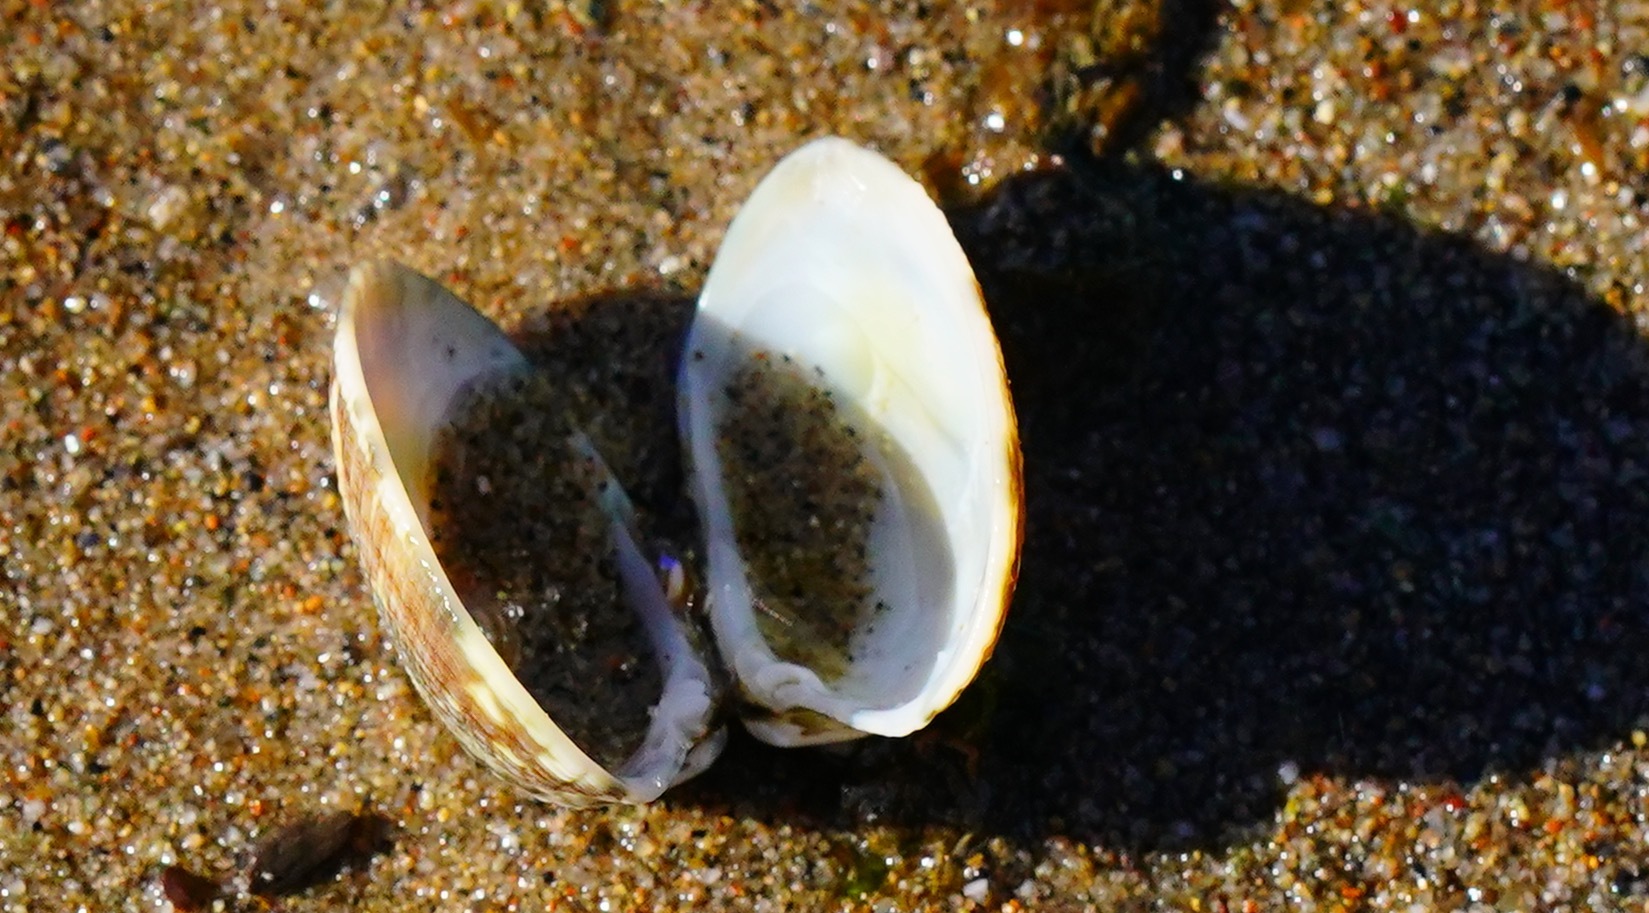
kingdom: Animalia
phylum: Mollusca
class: Bivalvia
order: Venerida
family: Veneridae
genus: Ruditapes
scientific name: Ruditapes philippinarum
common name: Manila clam
